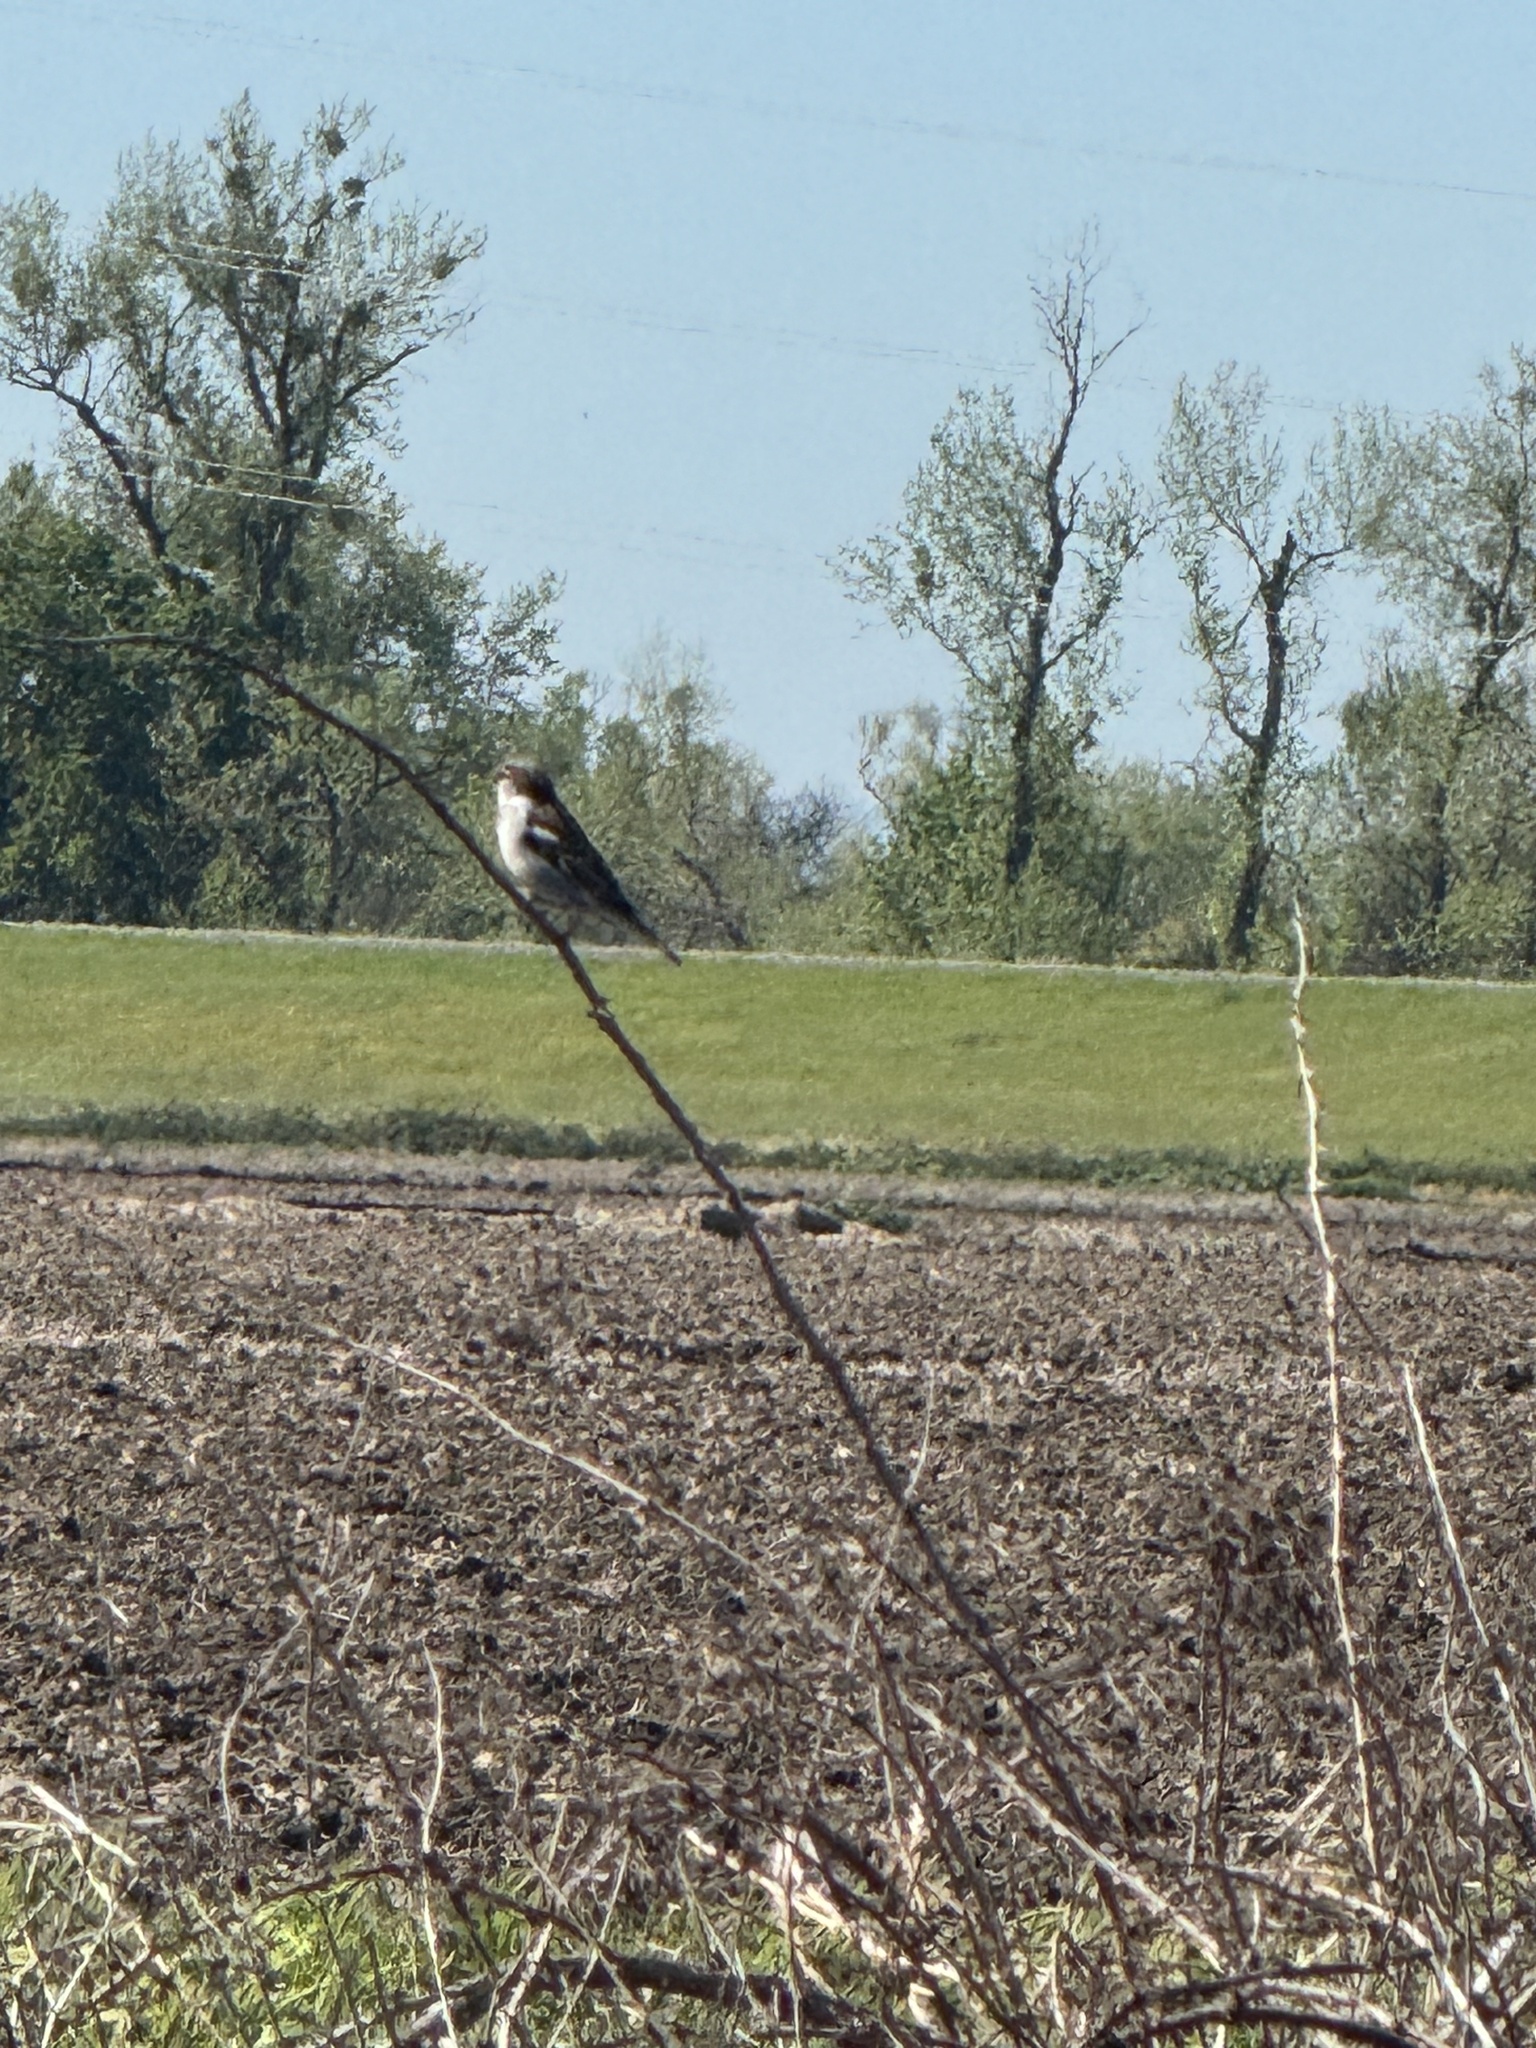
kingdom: Animalia
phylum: Chordata
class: Aves
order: Passeriformes
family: Passeridae
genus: Passer
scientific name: Passer domesticus
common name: House sparrow
